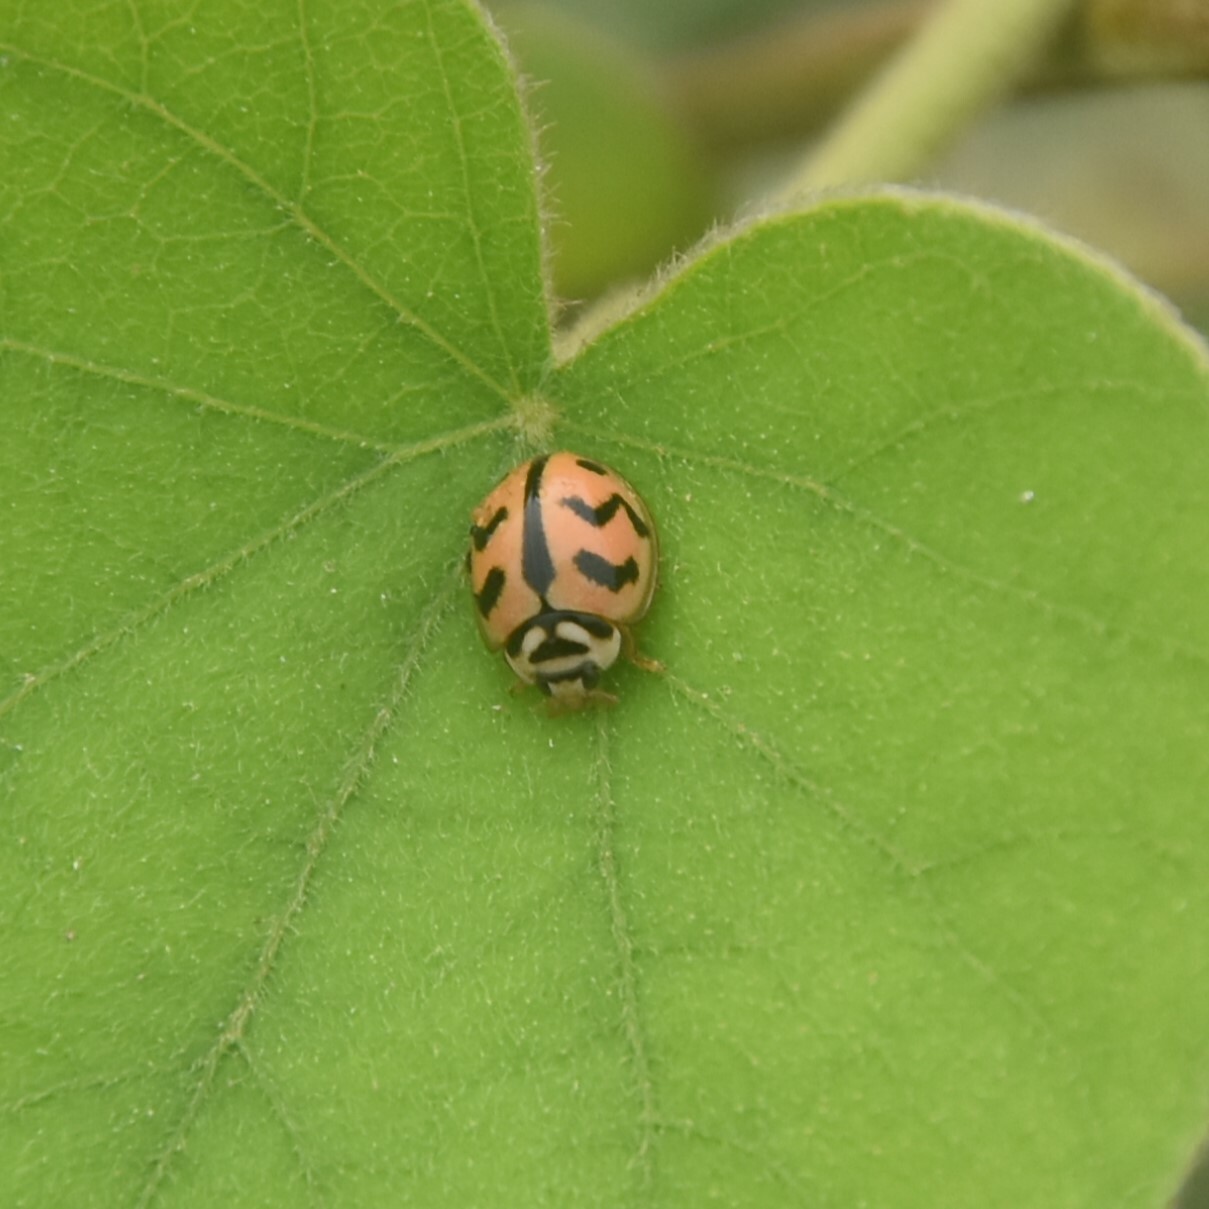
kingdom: Animalia
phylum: Arthropoda
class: Insecta
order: Coleoptera
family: Coccinellidae
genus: Cheilomenes
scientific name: Cheilomenes sexmaculata
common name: Ladybird beetle
